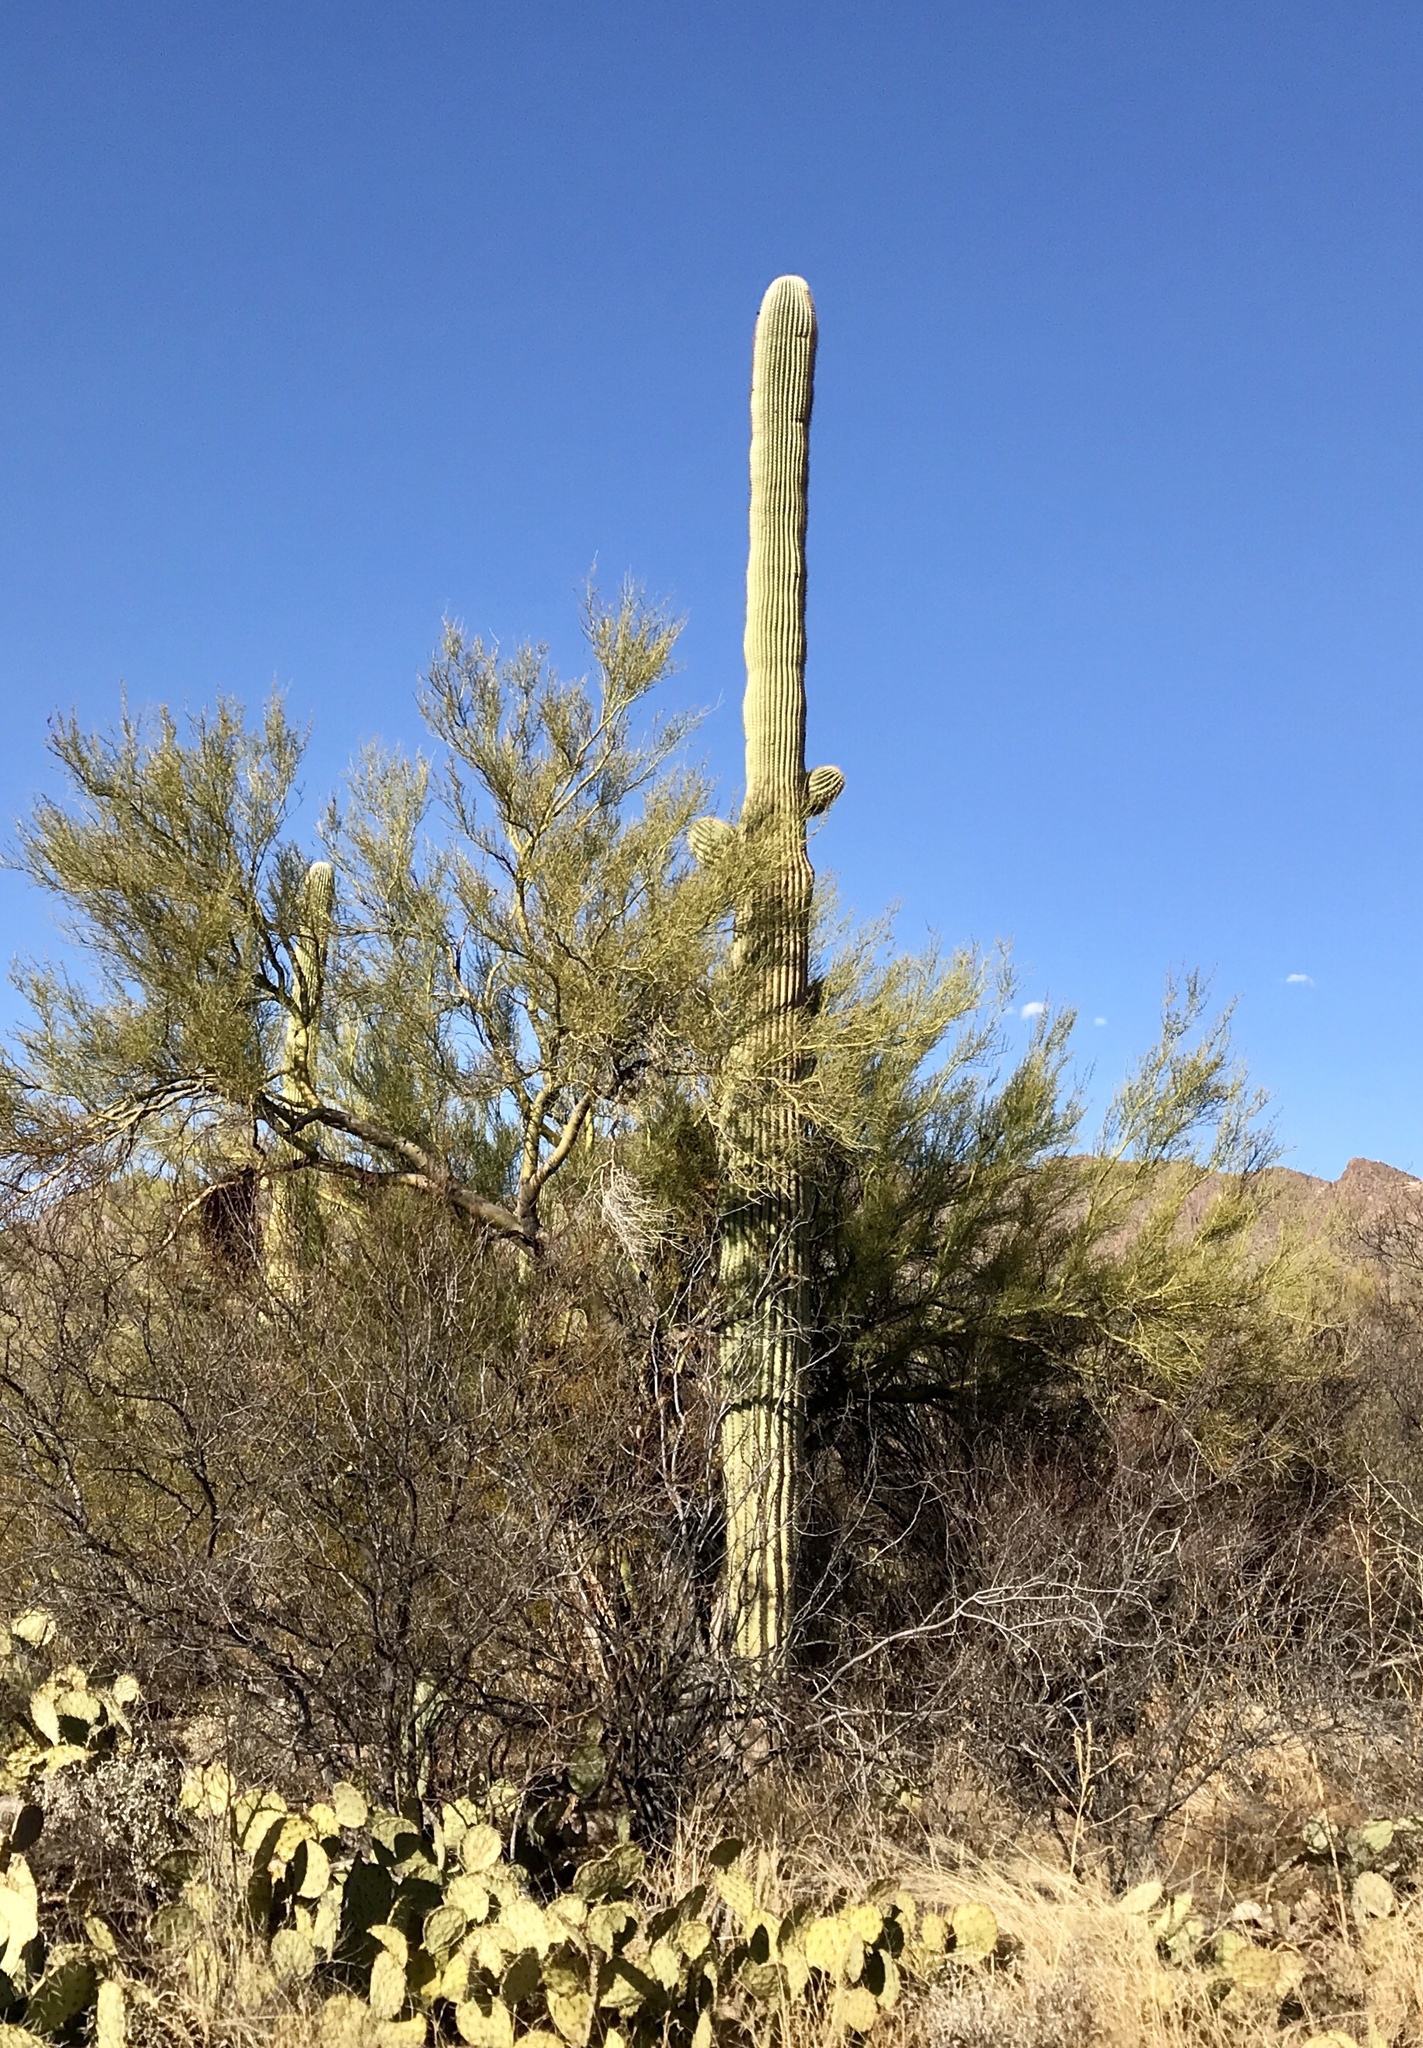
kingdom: Plantae
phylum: Tracheophyta
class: Magnoliopsida
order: Caryophyllales
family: Cactaceae
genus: Carnegiea
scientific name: Carnegiea gigantea
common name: Saguaro
